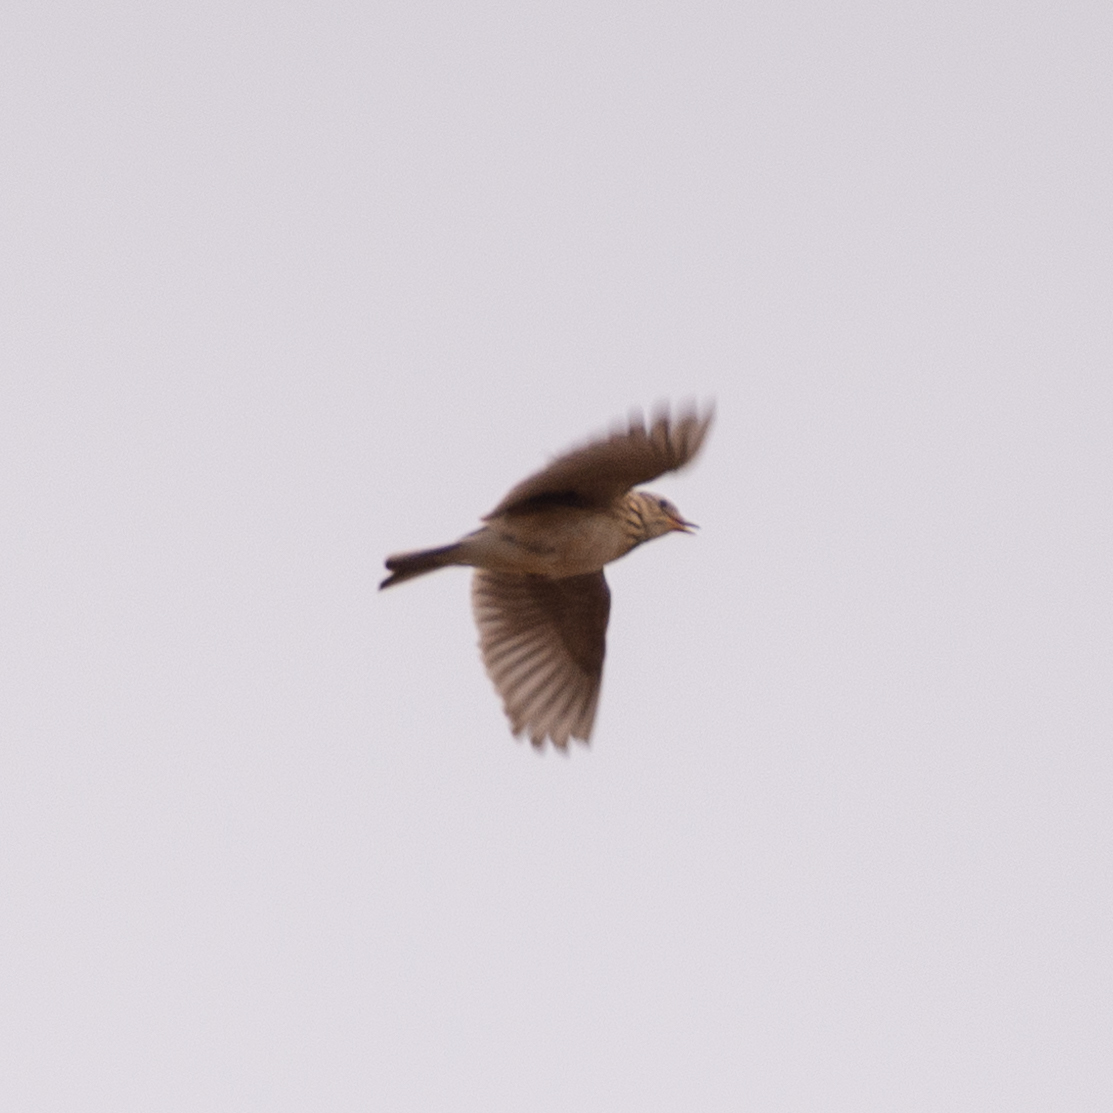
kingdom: Animalia
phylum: Chordata
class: Aves
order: Passeriformes
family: Alaudidae
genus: Alauda
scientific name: Alauda arvensis
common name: Eurasian skylark
